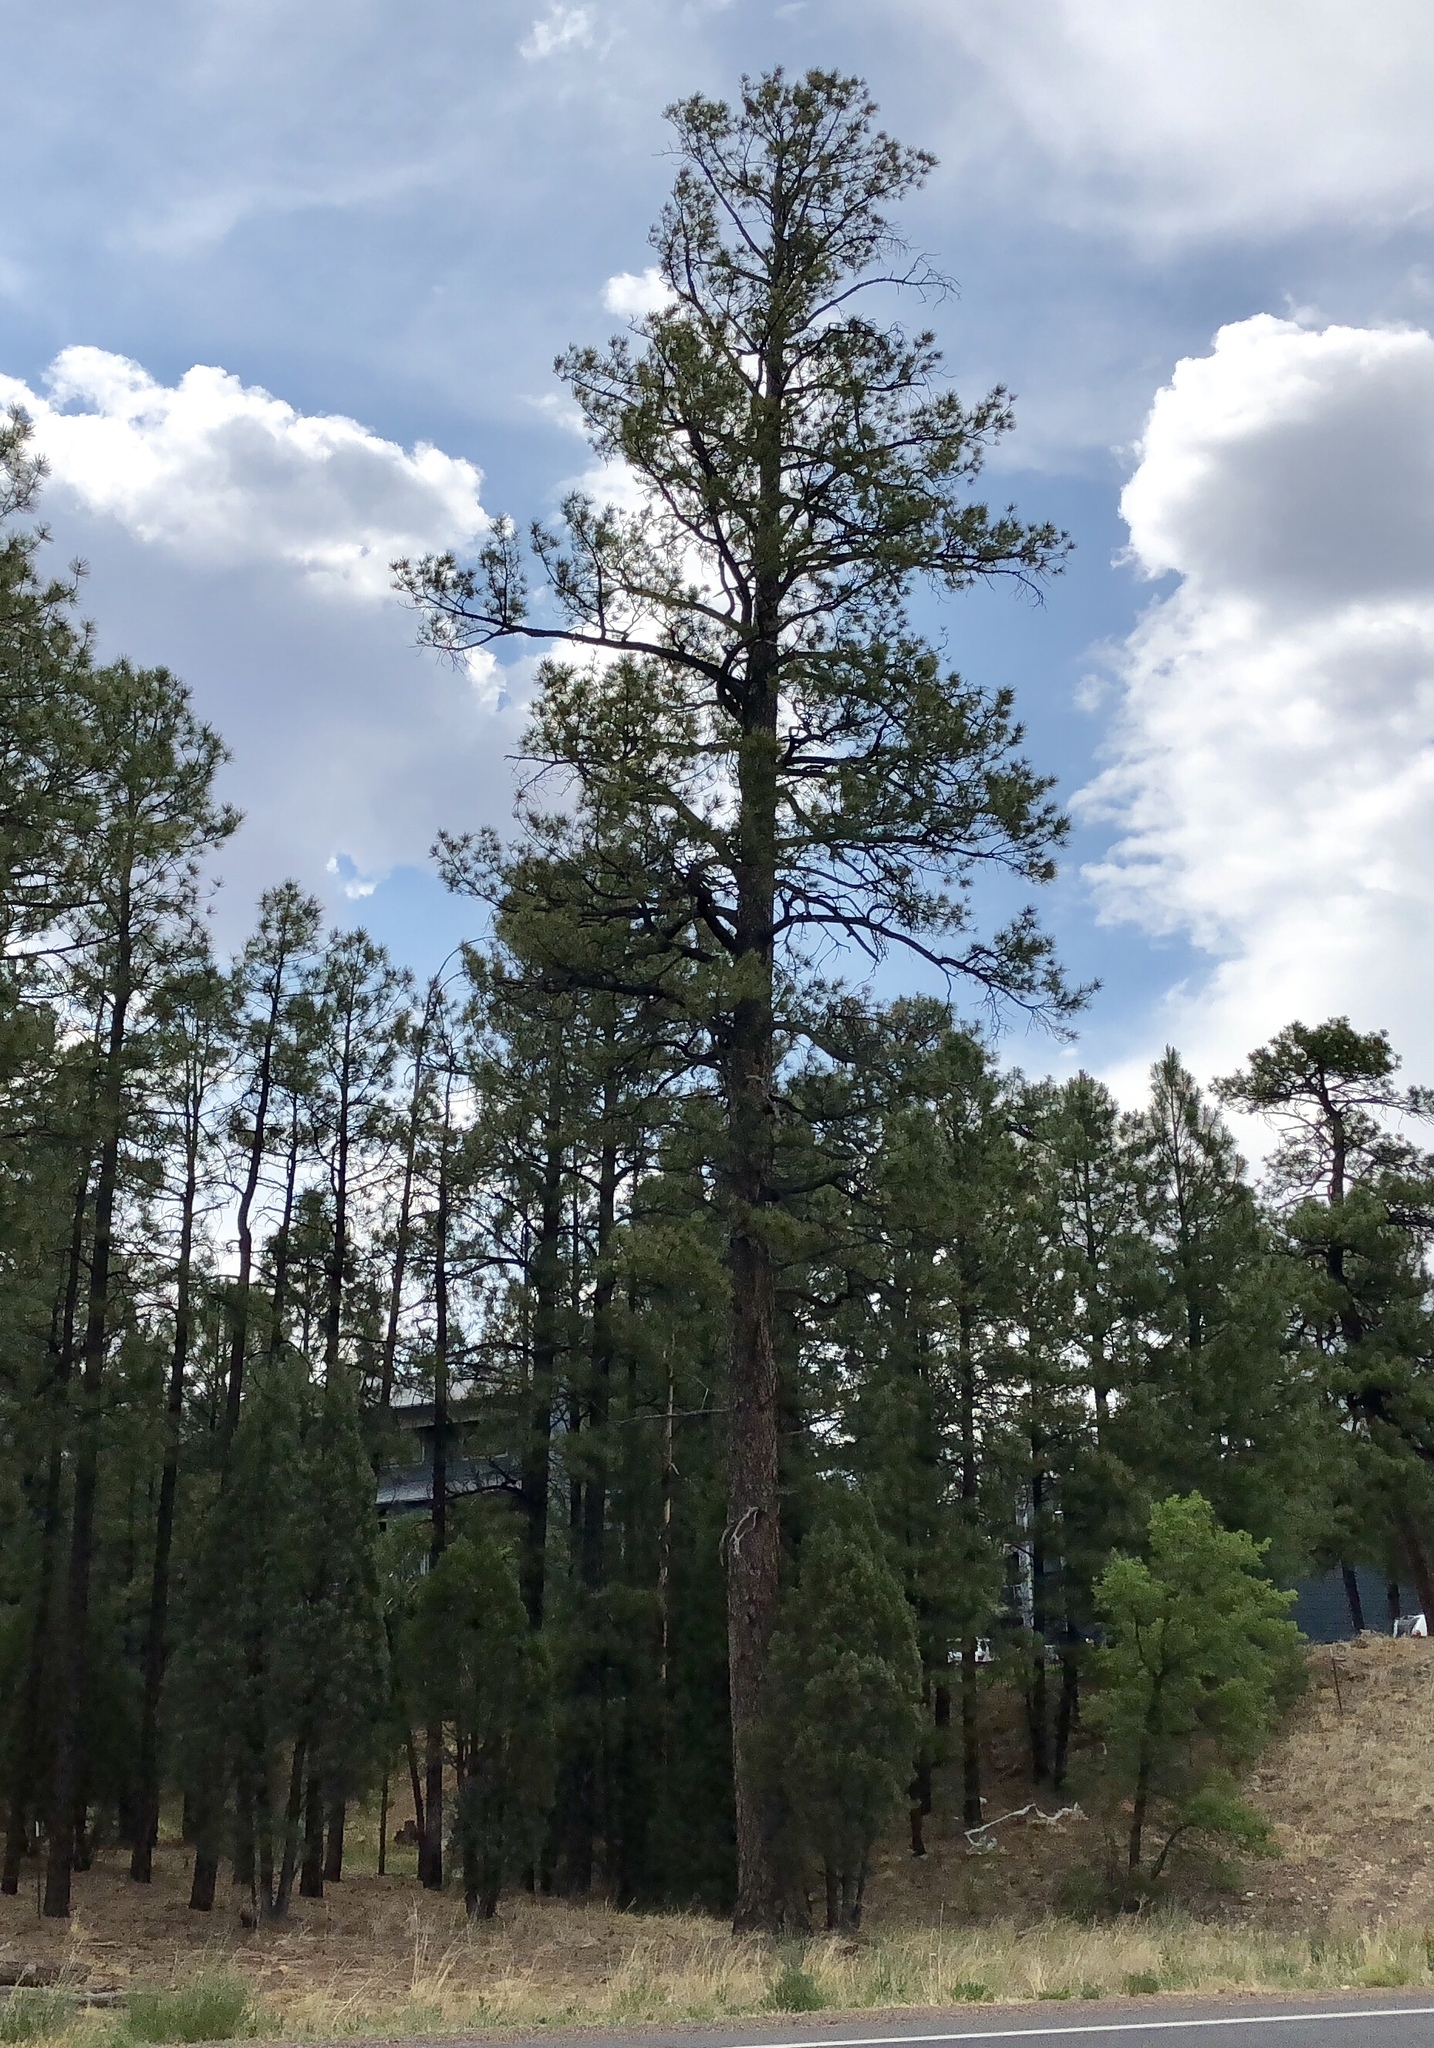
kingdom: Plantae
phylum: Tracheophyta
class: Pinopsida
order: Pinales
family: Pinaceae
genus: Pinus
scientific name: Pinus ponderosa
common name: Western yellow-pine
